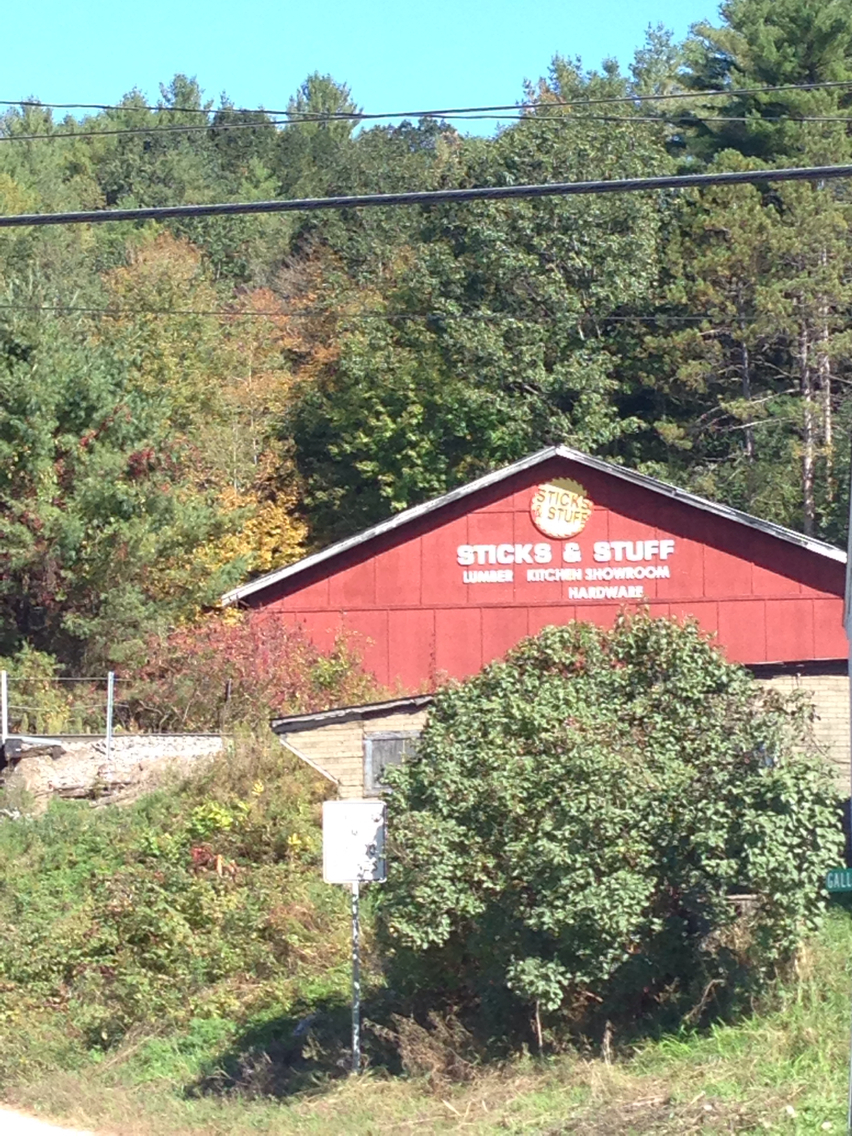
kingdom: Plantae
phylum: Tracheophyta
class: Magnoliopsida
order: Fagales
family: Fagaceae
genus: Quercus
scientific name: Quercus rubra
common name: Red oak
